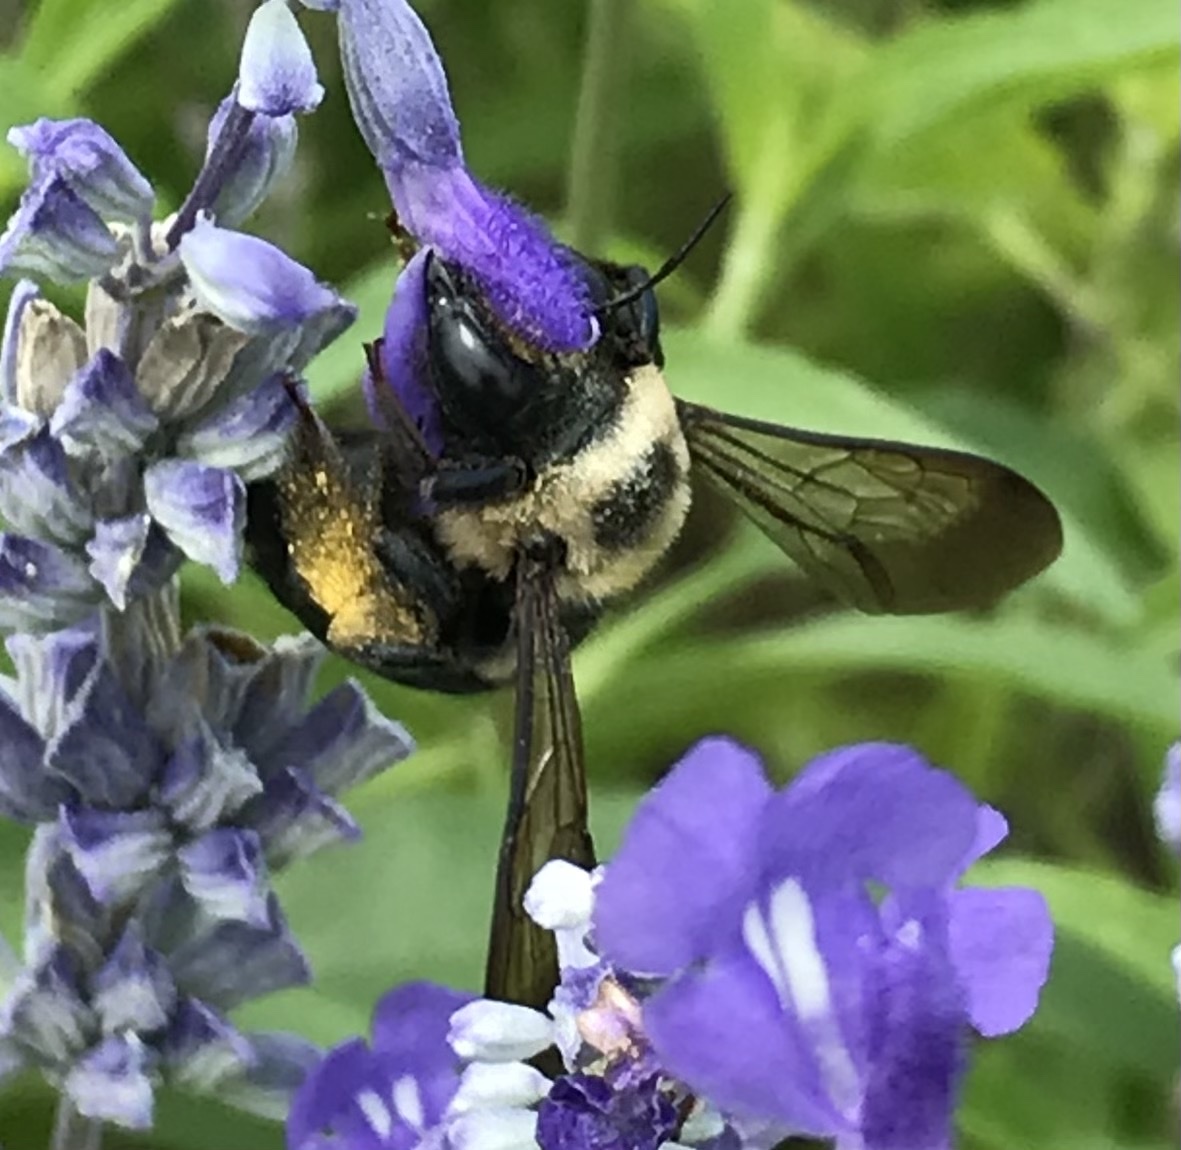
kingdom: Animalia
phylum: Arthropoda
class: Insecta
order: Hymenoptera
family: Apidae
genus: Xylocopa
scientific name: Xylocopa micans
